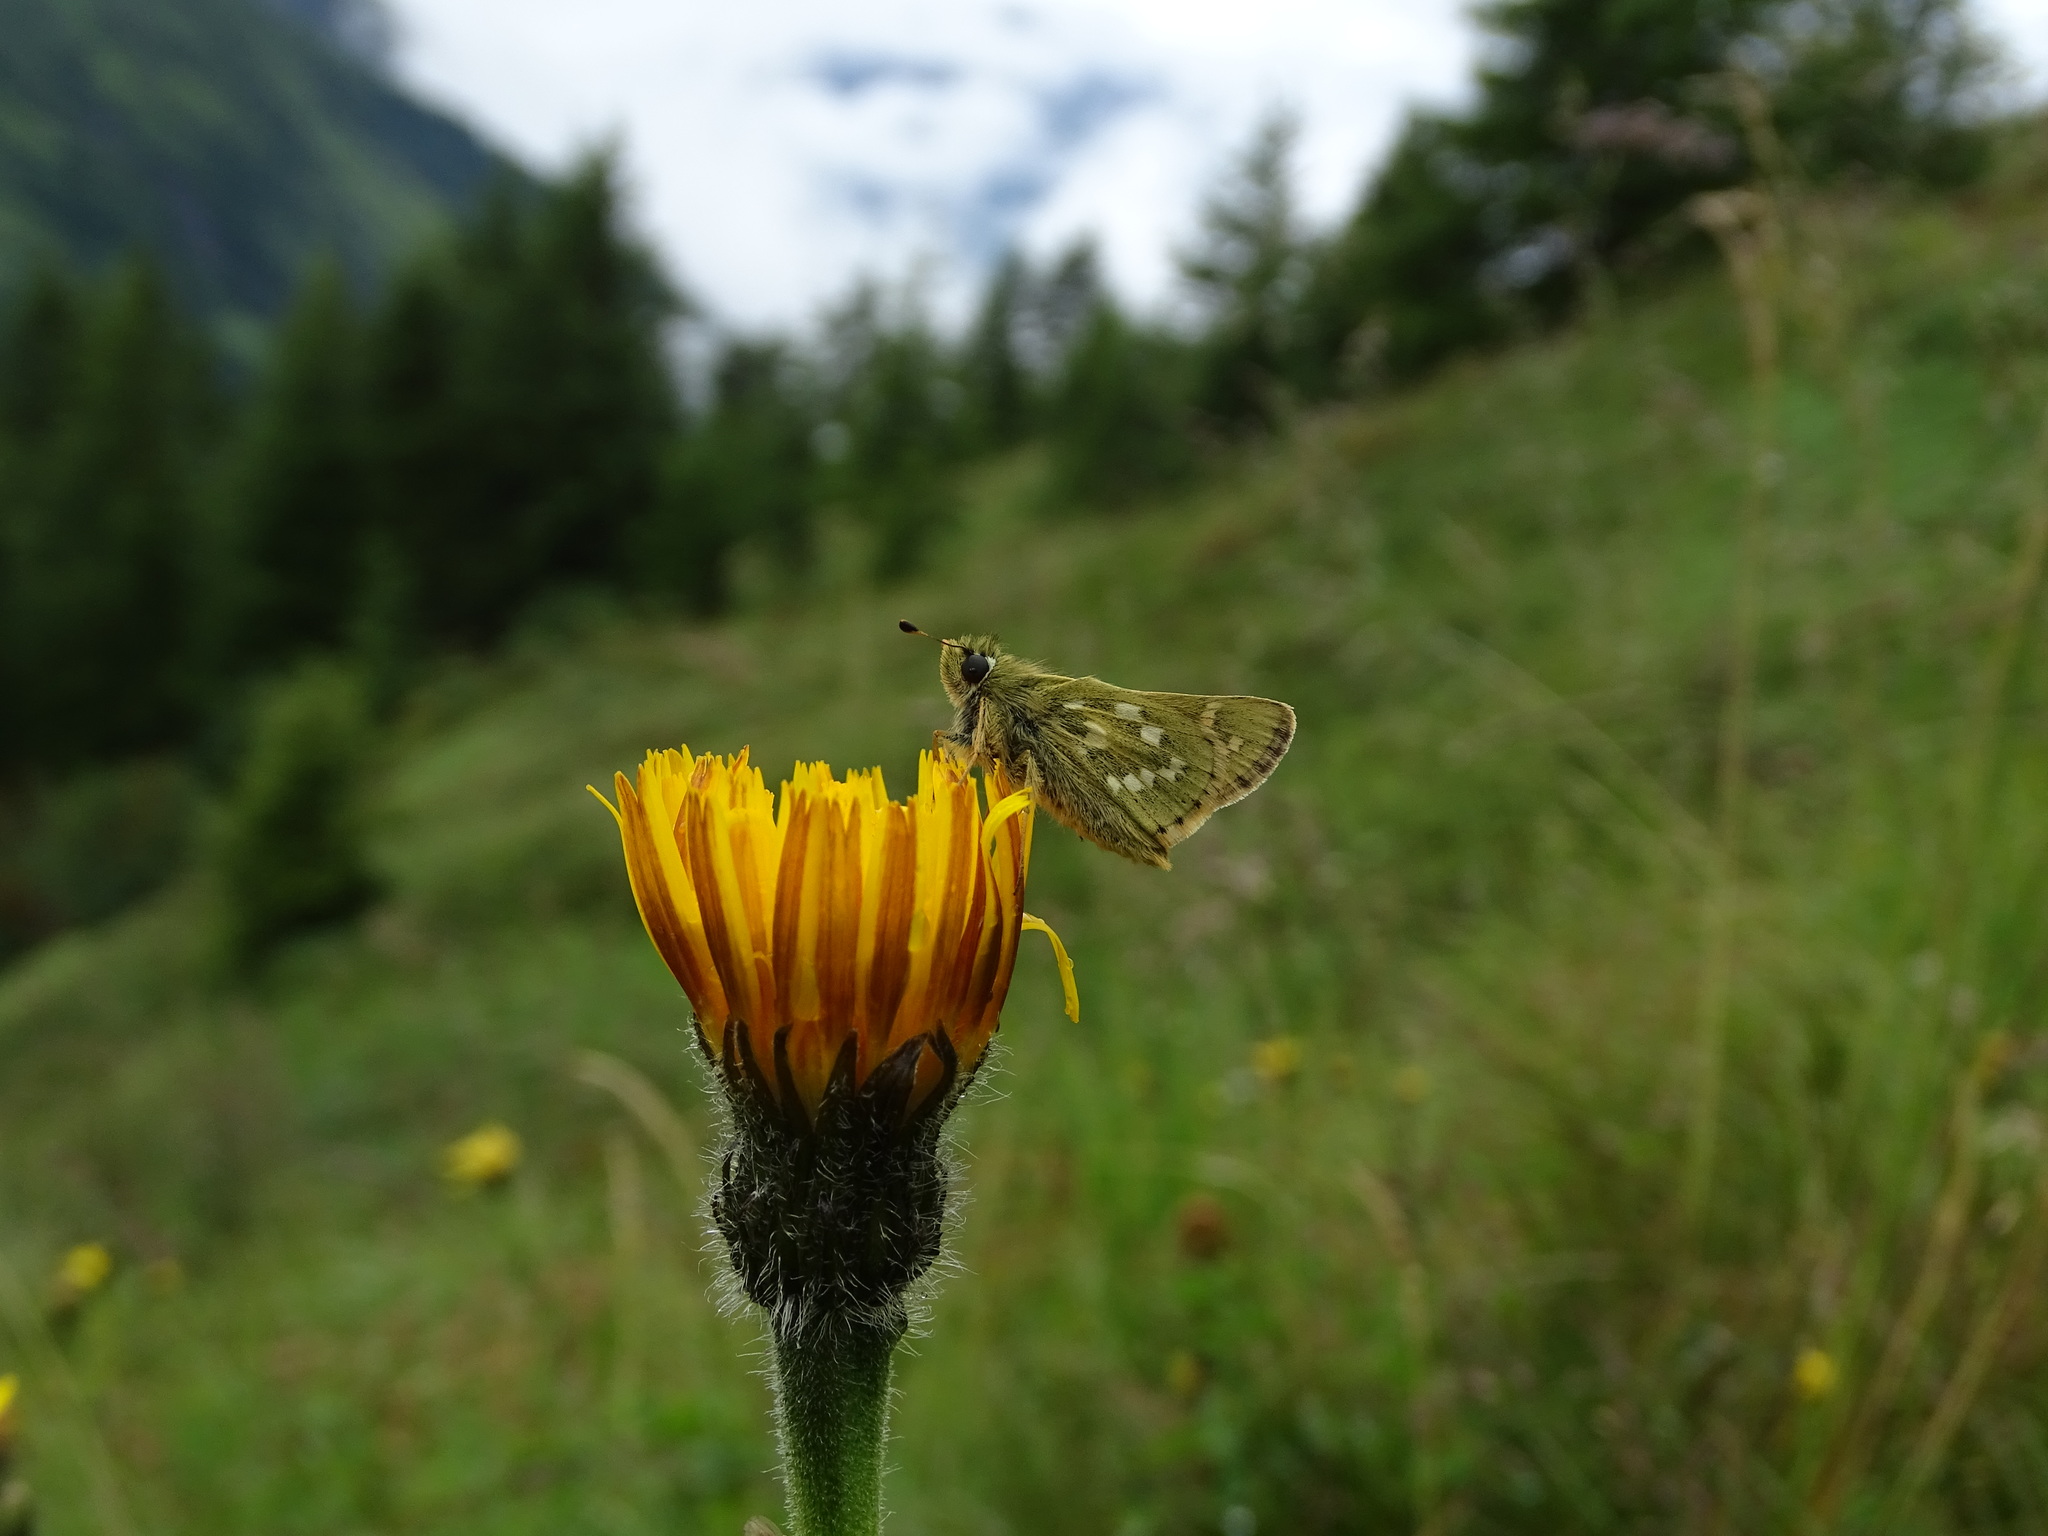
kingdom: Animalia
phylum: Arthropoda
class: Insecta
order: Lepidoptera
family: Hesperiidae
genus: Hesperia
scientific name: Hesperia comma
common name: Common branded skipper
